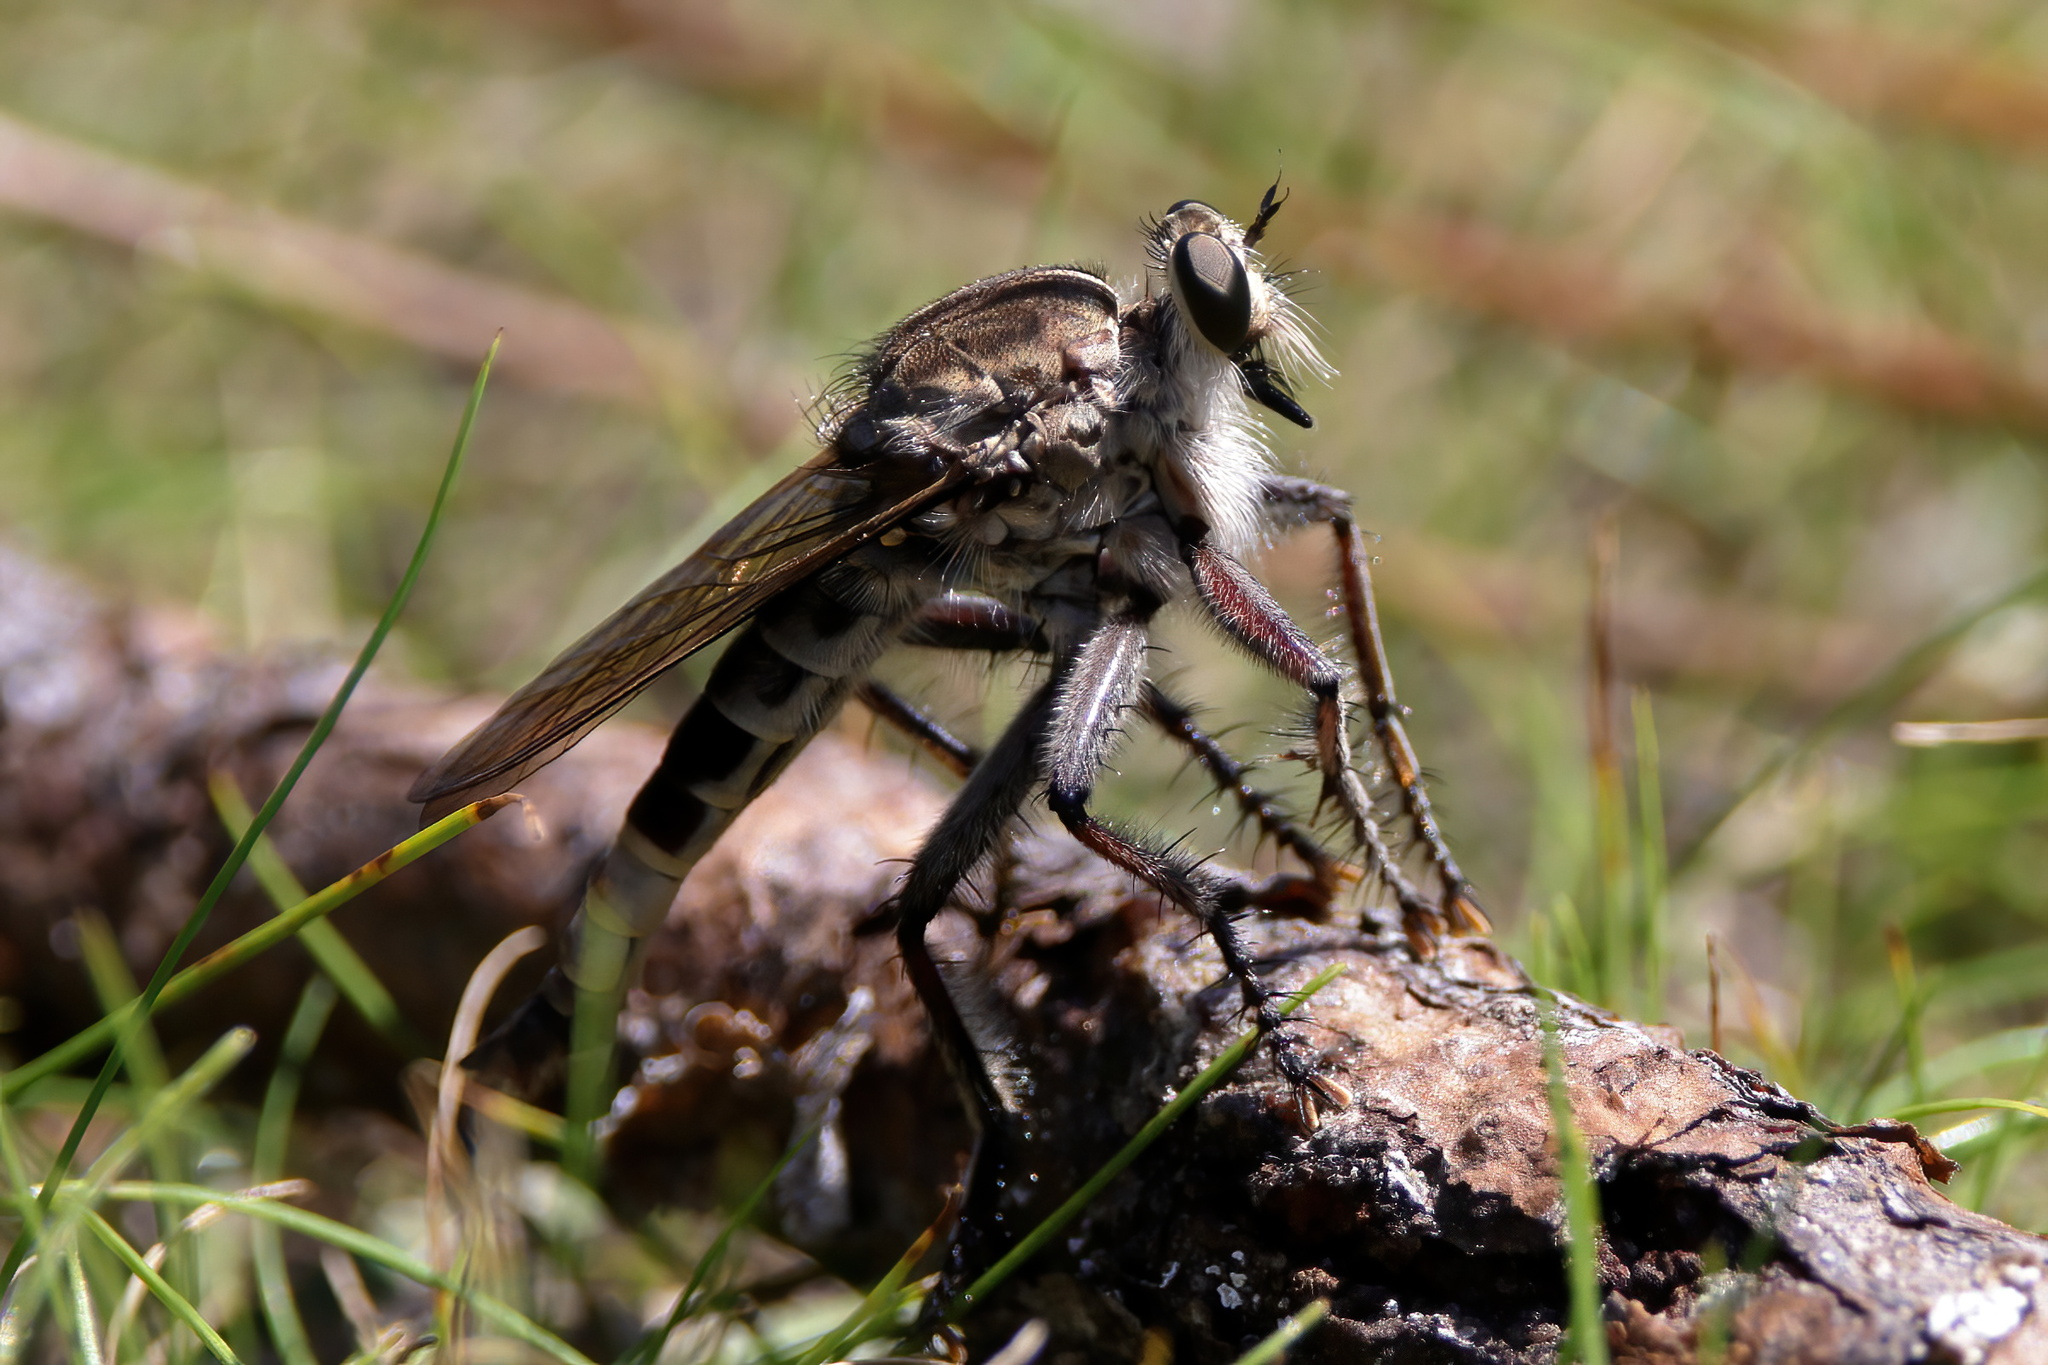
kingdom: Animalia
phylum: Arthropoda
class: Insecta
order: Diptera
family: Asilidae
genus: Triorla
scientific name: Triorla interrupta
